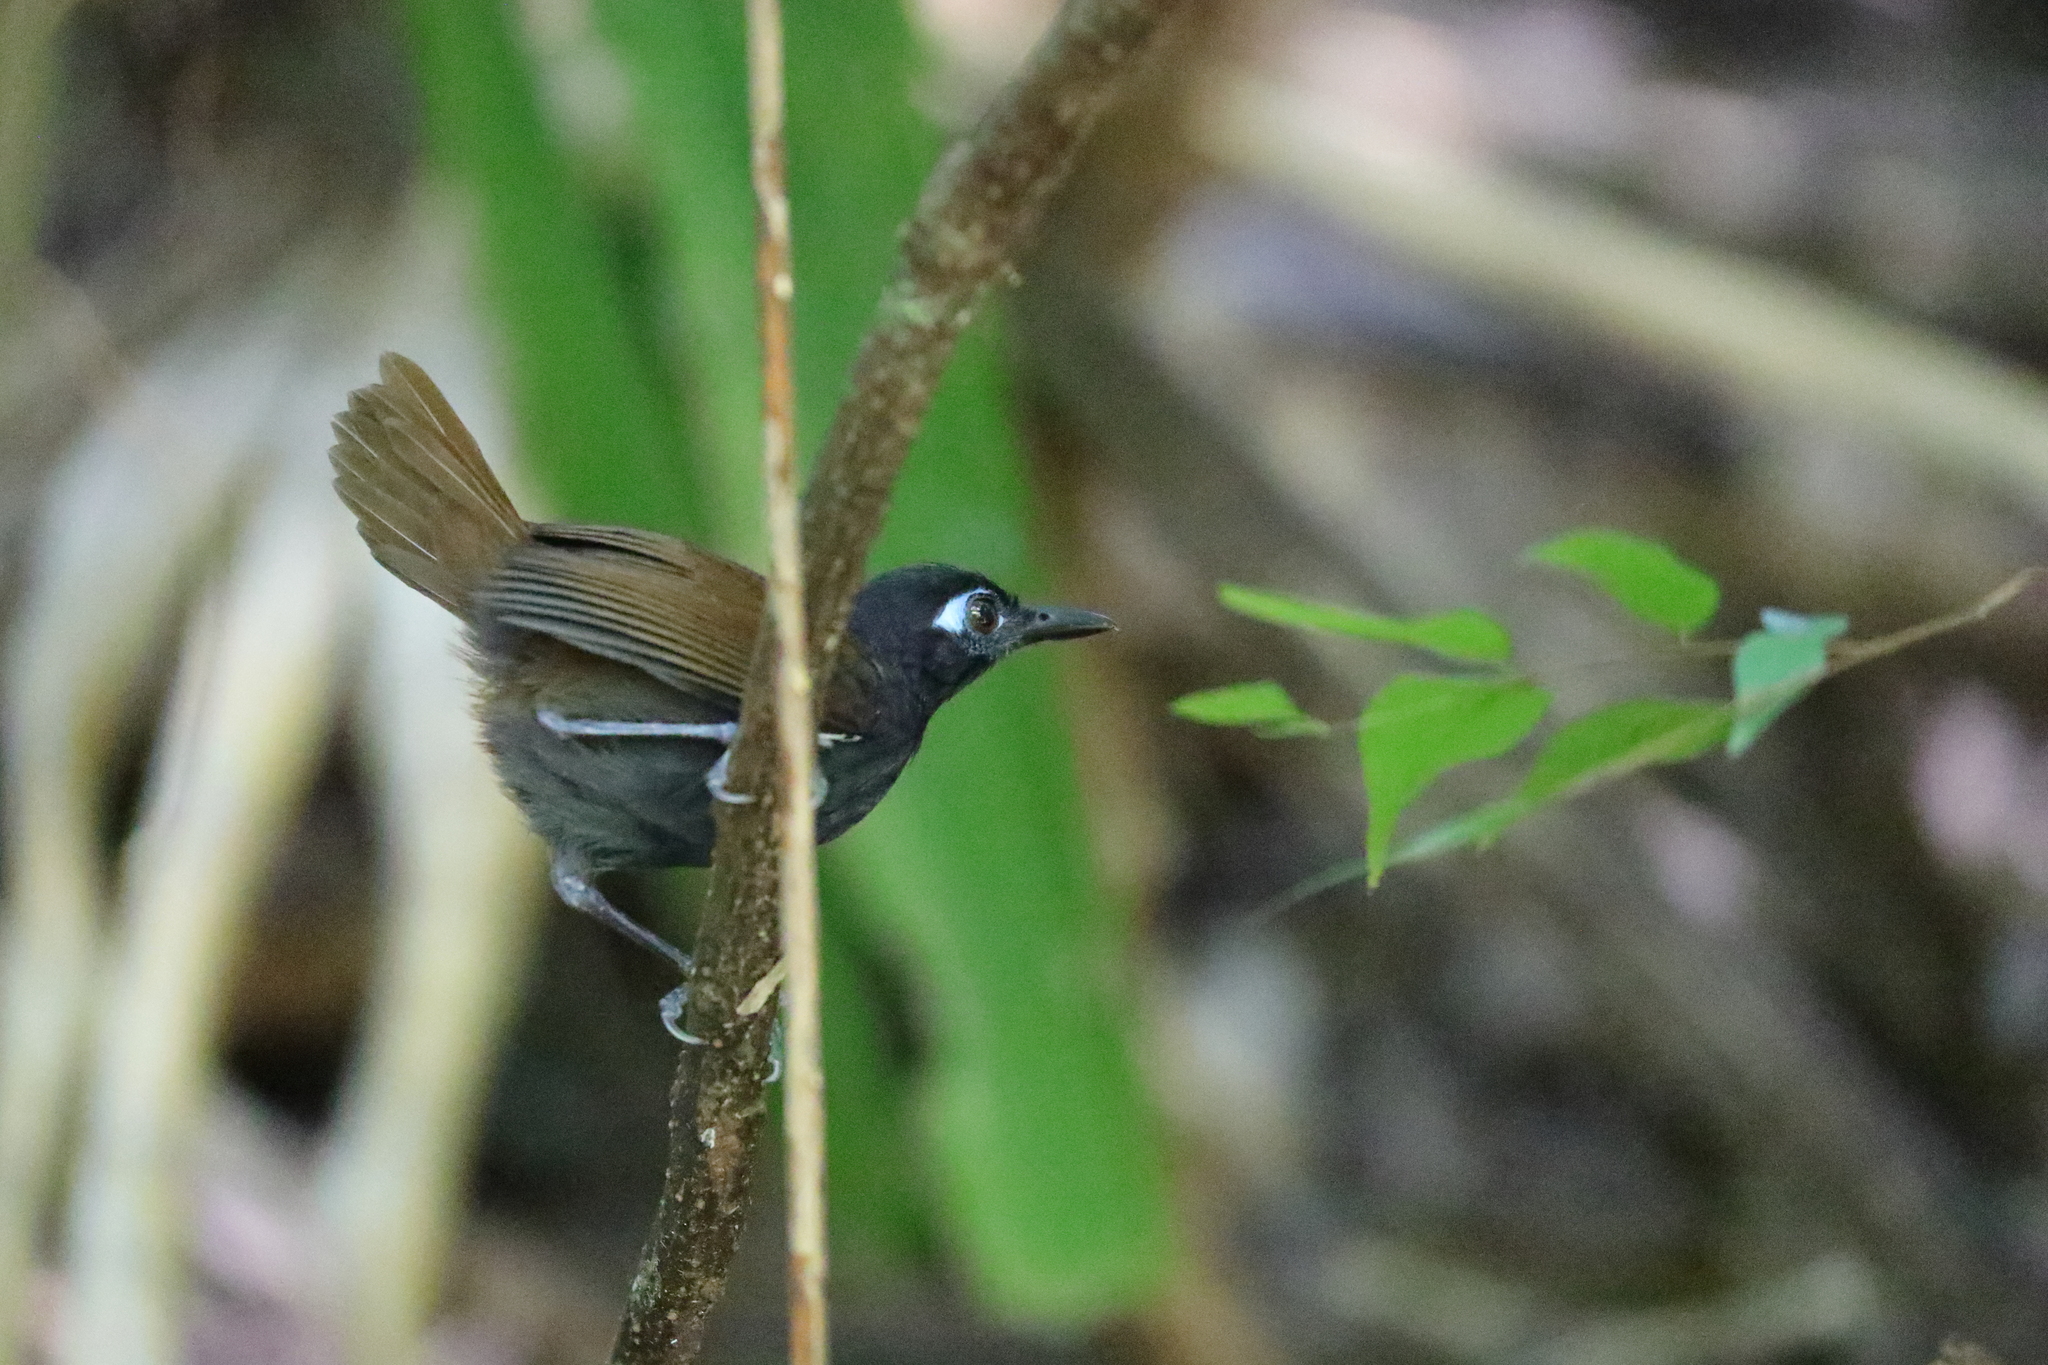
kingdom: Animalia
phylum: Chordata
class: Aves
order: Passeriformes
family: Thamnophilidae
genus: Myrmeciza
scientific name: Myrmeciza exsul
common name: Chestnut-backed antbird
